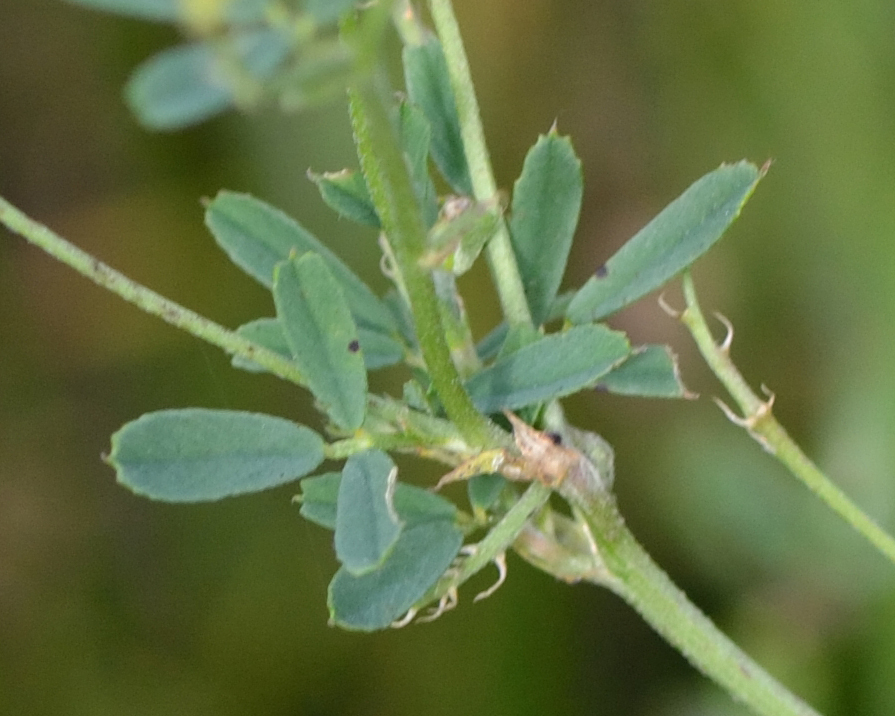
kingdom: Plantae
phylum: Tracheophyta
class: Magnoliopsida
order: Fabales
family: Fabaceae
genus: Medicago
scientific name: Medicago varia
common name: Sand lucerne
